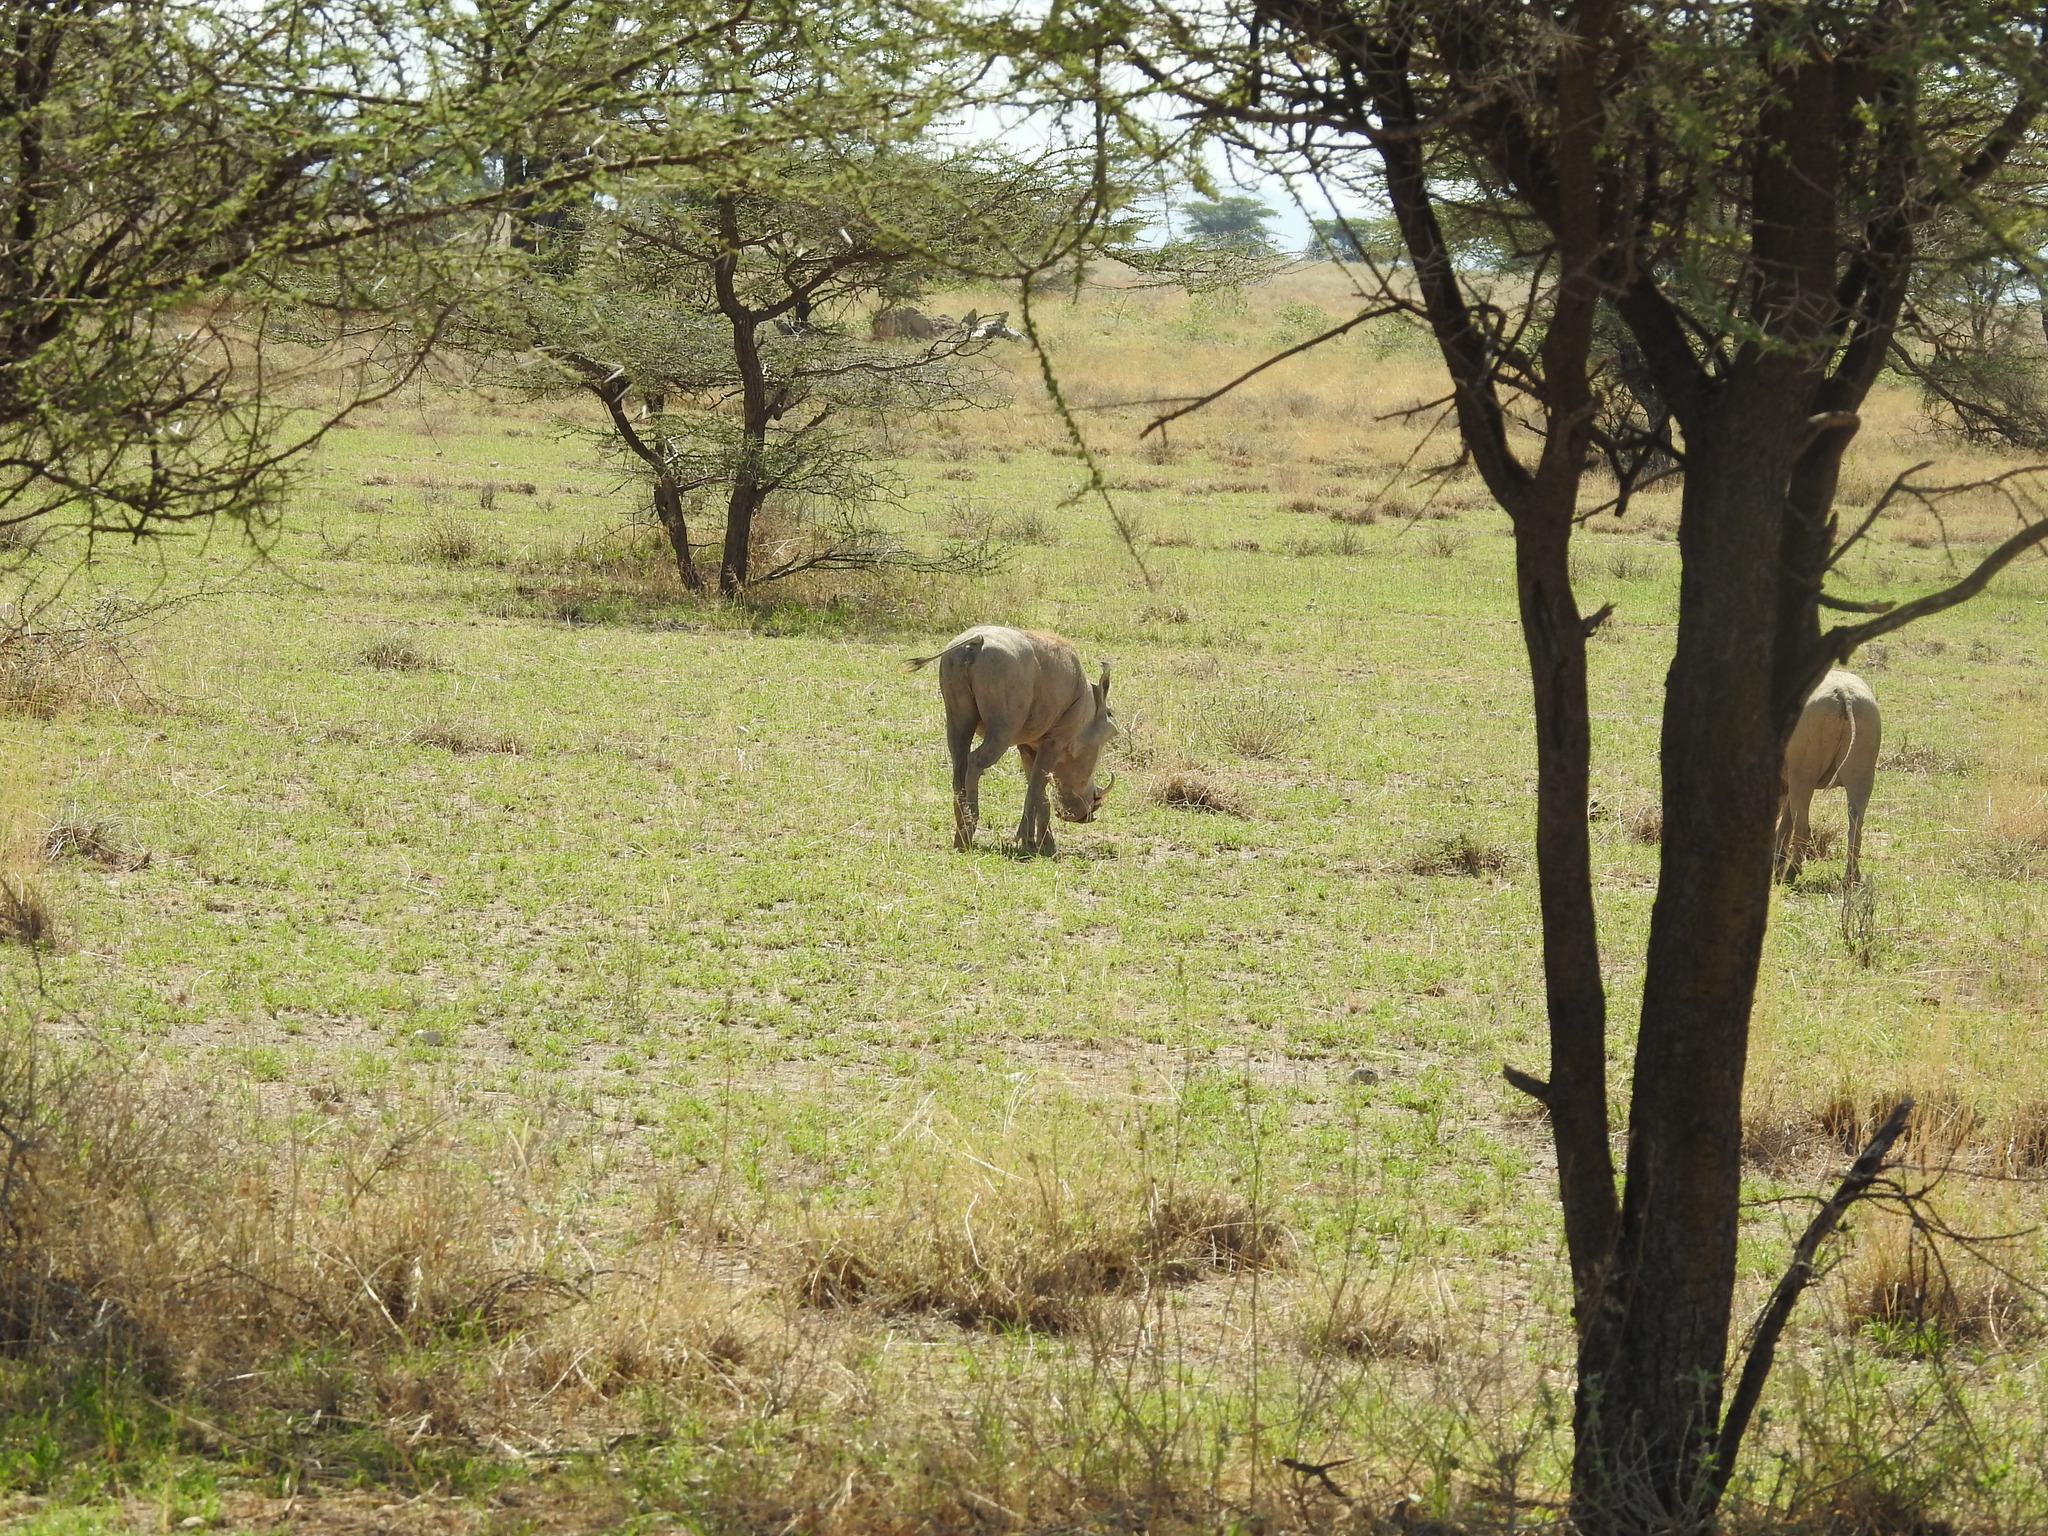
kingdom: Animalia
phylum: Chordata
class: Mammalia
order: Artiodactyla
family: Suidae
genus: Phacochoerus
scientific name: Phacochoerus aethiopicus
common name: Desert warthog
